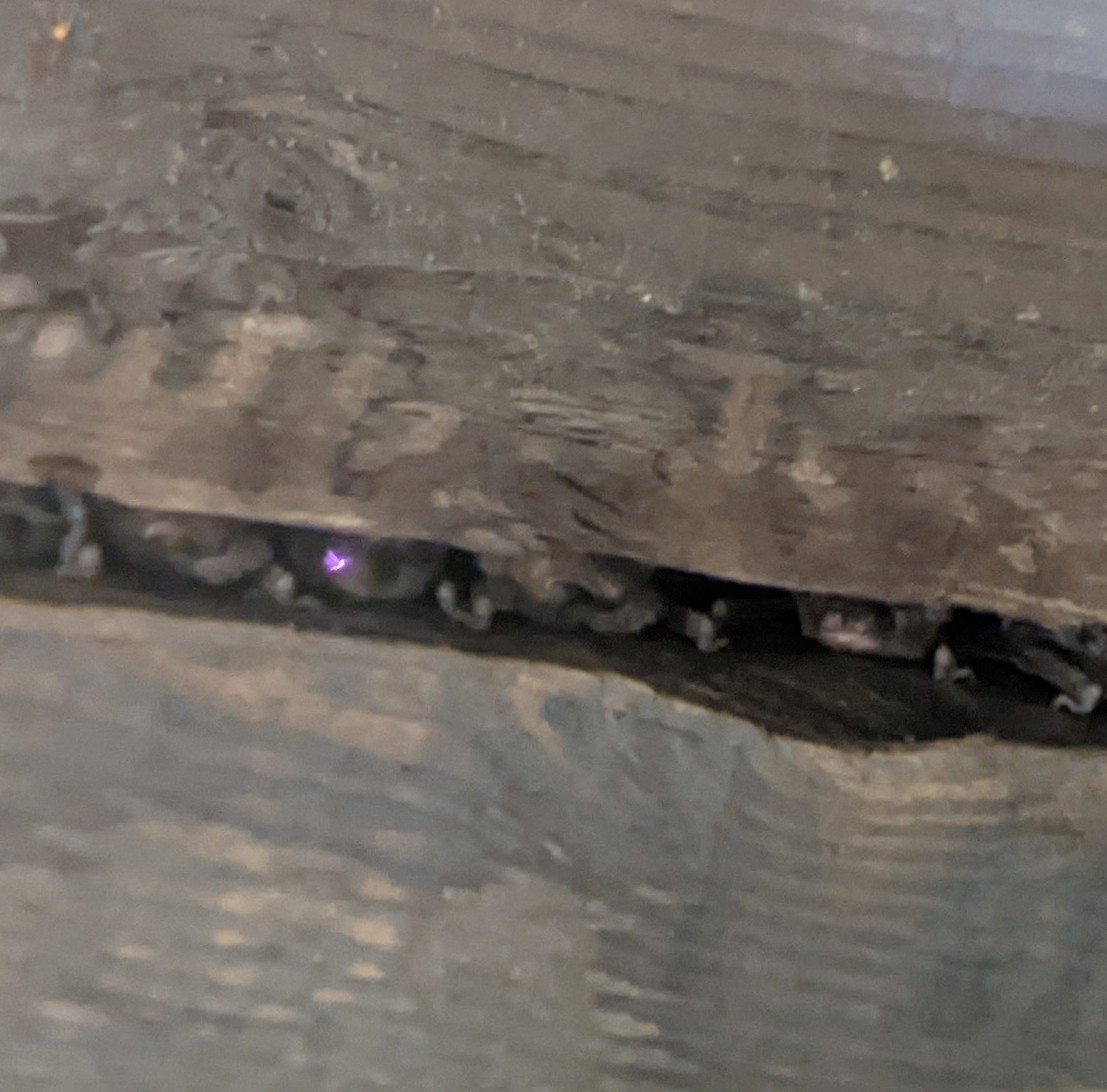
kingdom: Animalia
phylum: Chordata
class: Mammalia
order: Chiroptera
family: Molossidae
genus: Tadarida
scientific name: Tadarida brasiliensis
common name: Mexican free-tailed bat
